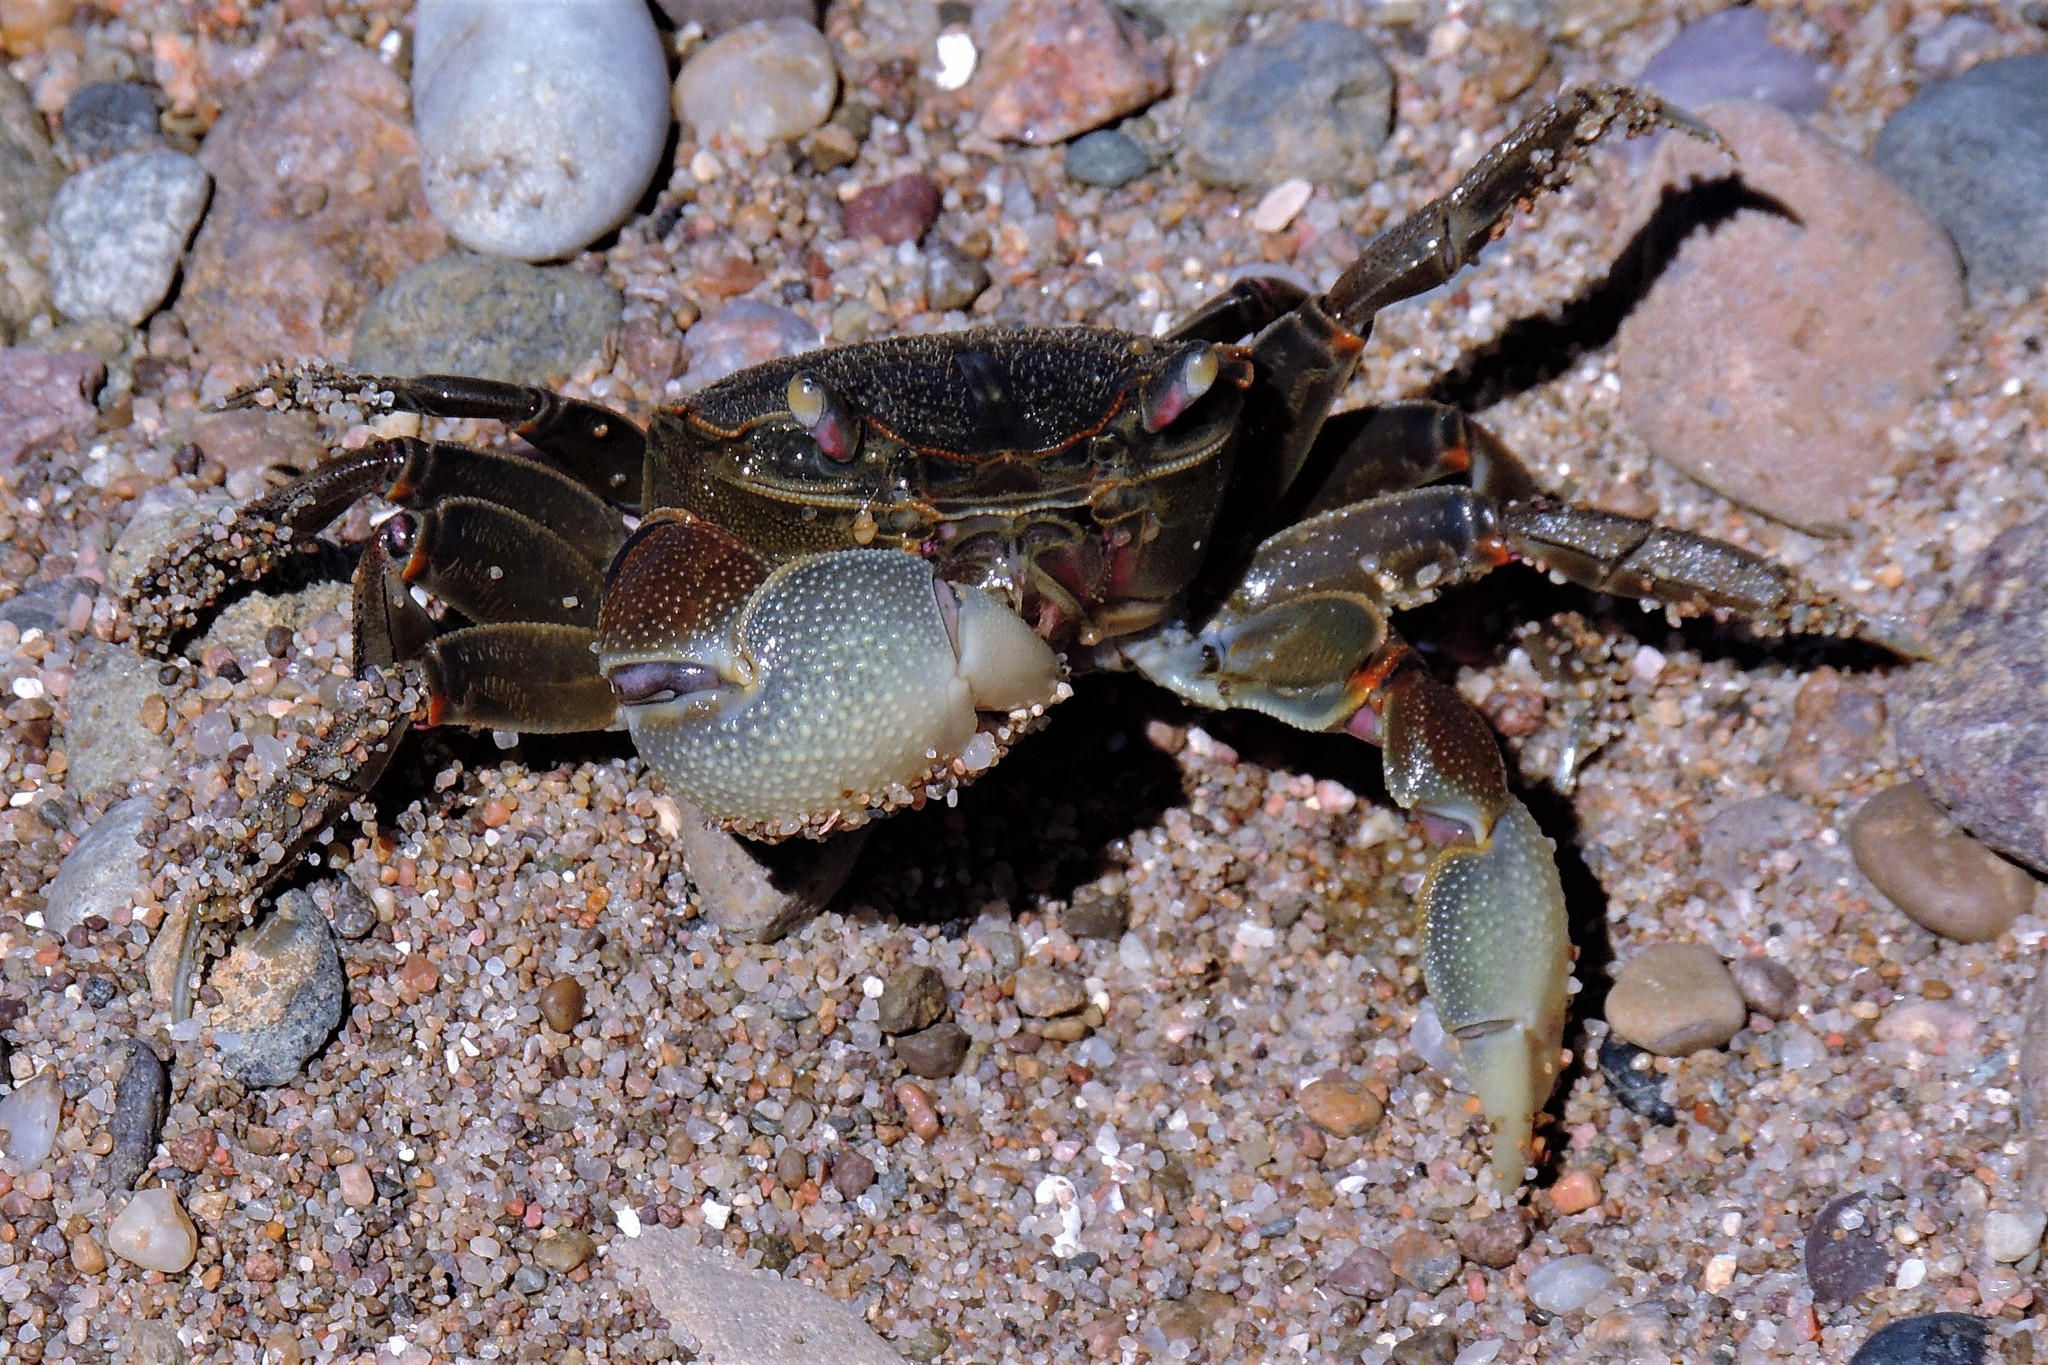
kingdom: Animalia
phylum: Arthropoda
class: Malacostraca
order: Decapoda
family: Varunidae
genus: Neohelice
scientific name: Neohelice granulata
